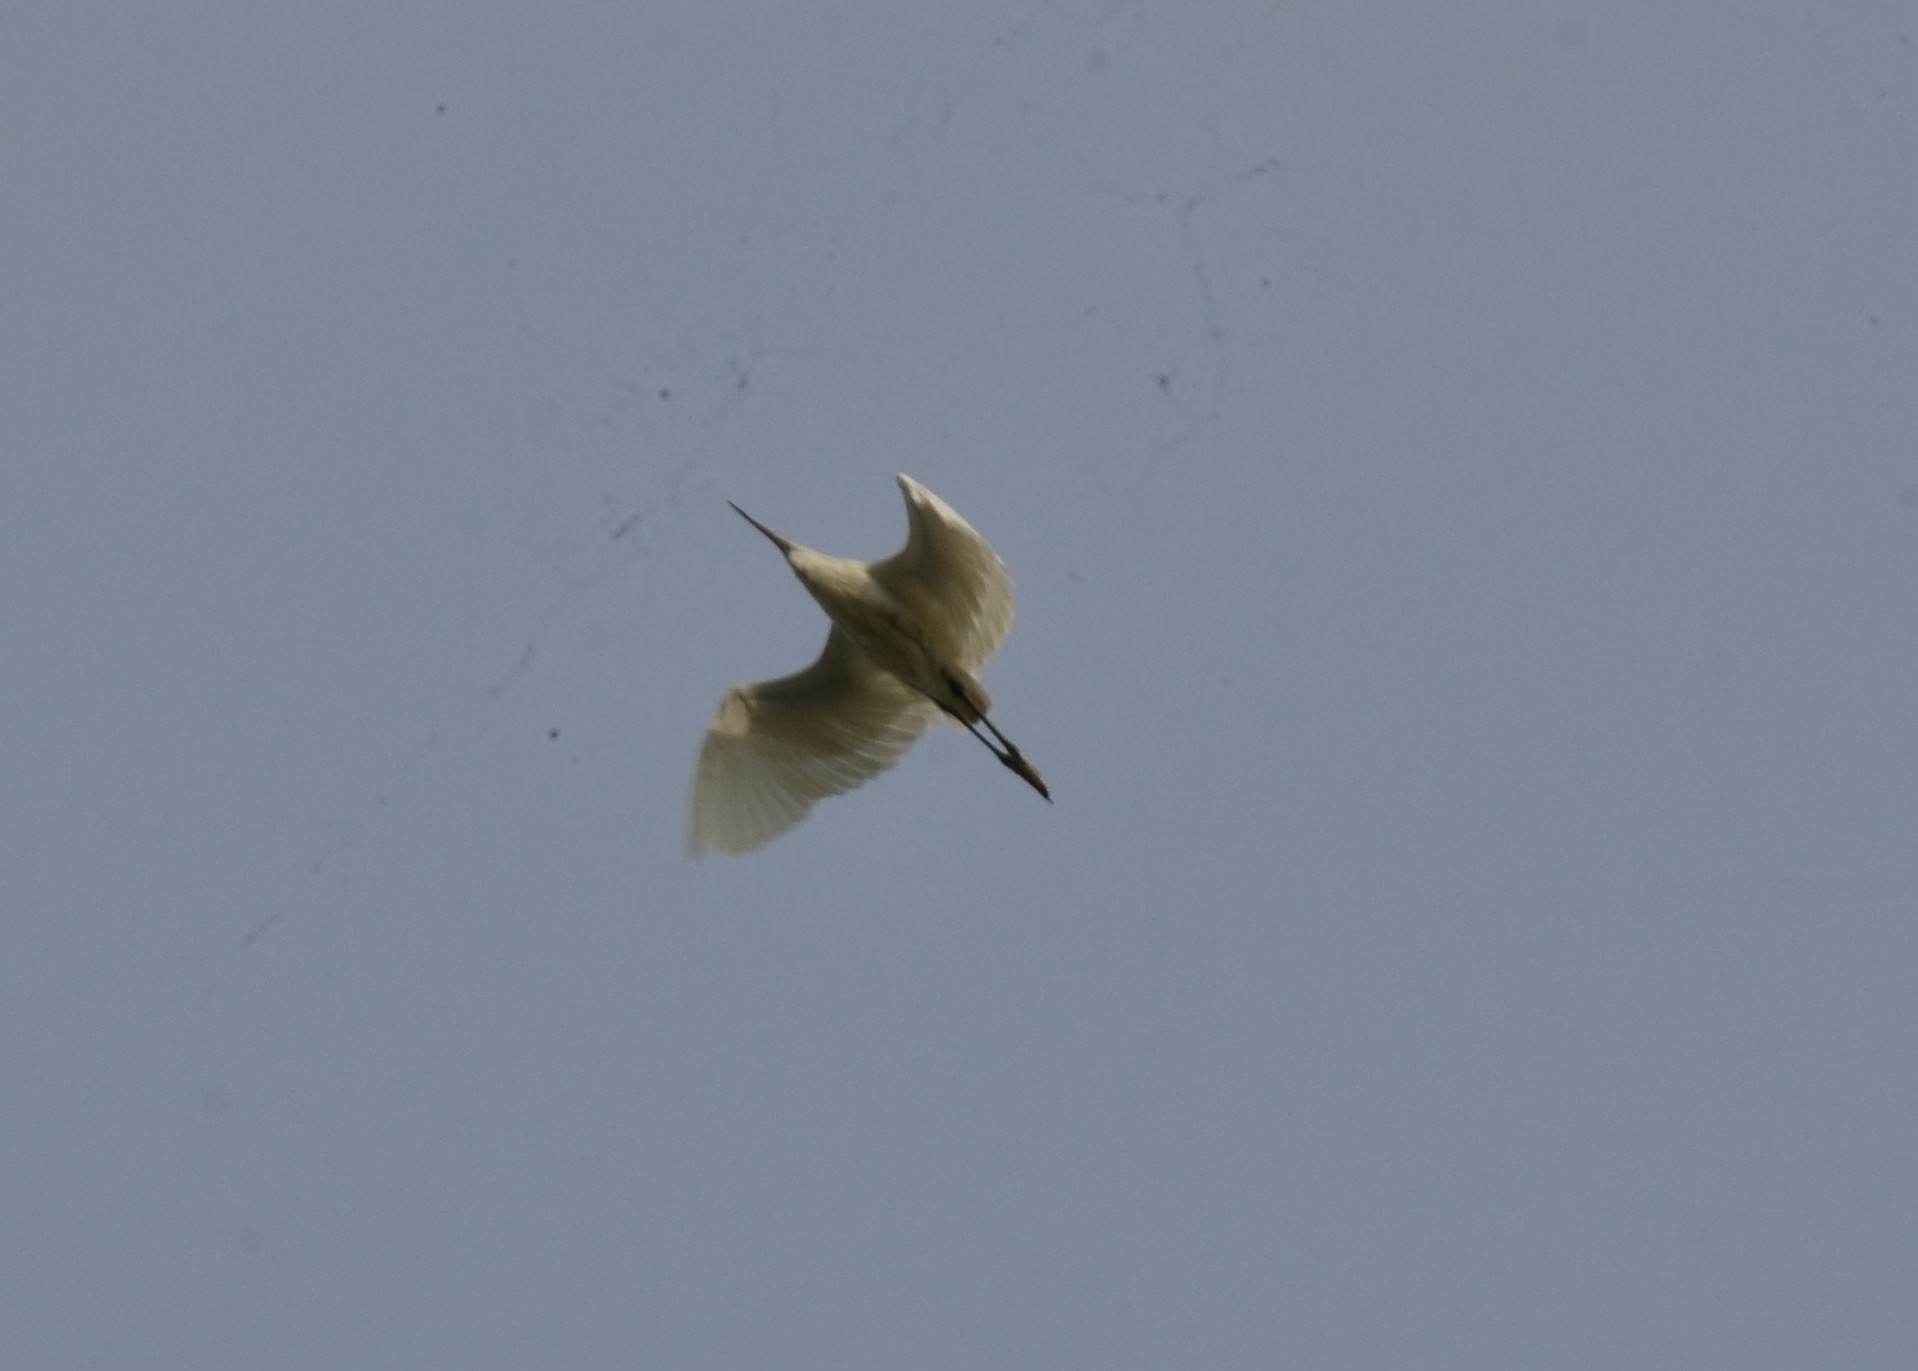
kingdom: Animalia
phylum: Chordata
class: Aves
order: Pelecaniformes
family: Ardeidae
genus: Egretta
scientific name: Egretta garzetta
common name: Little egret
